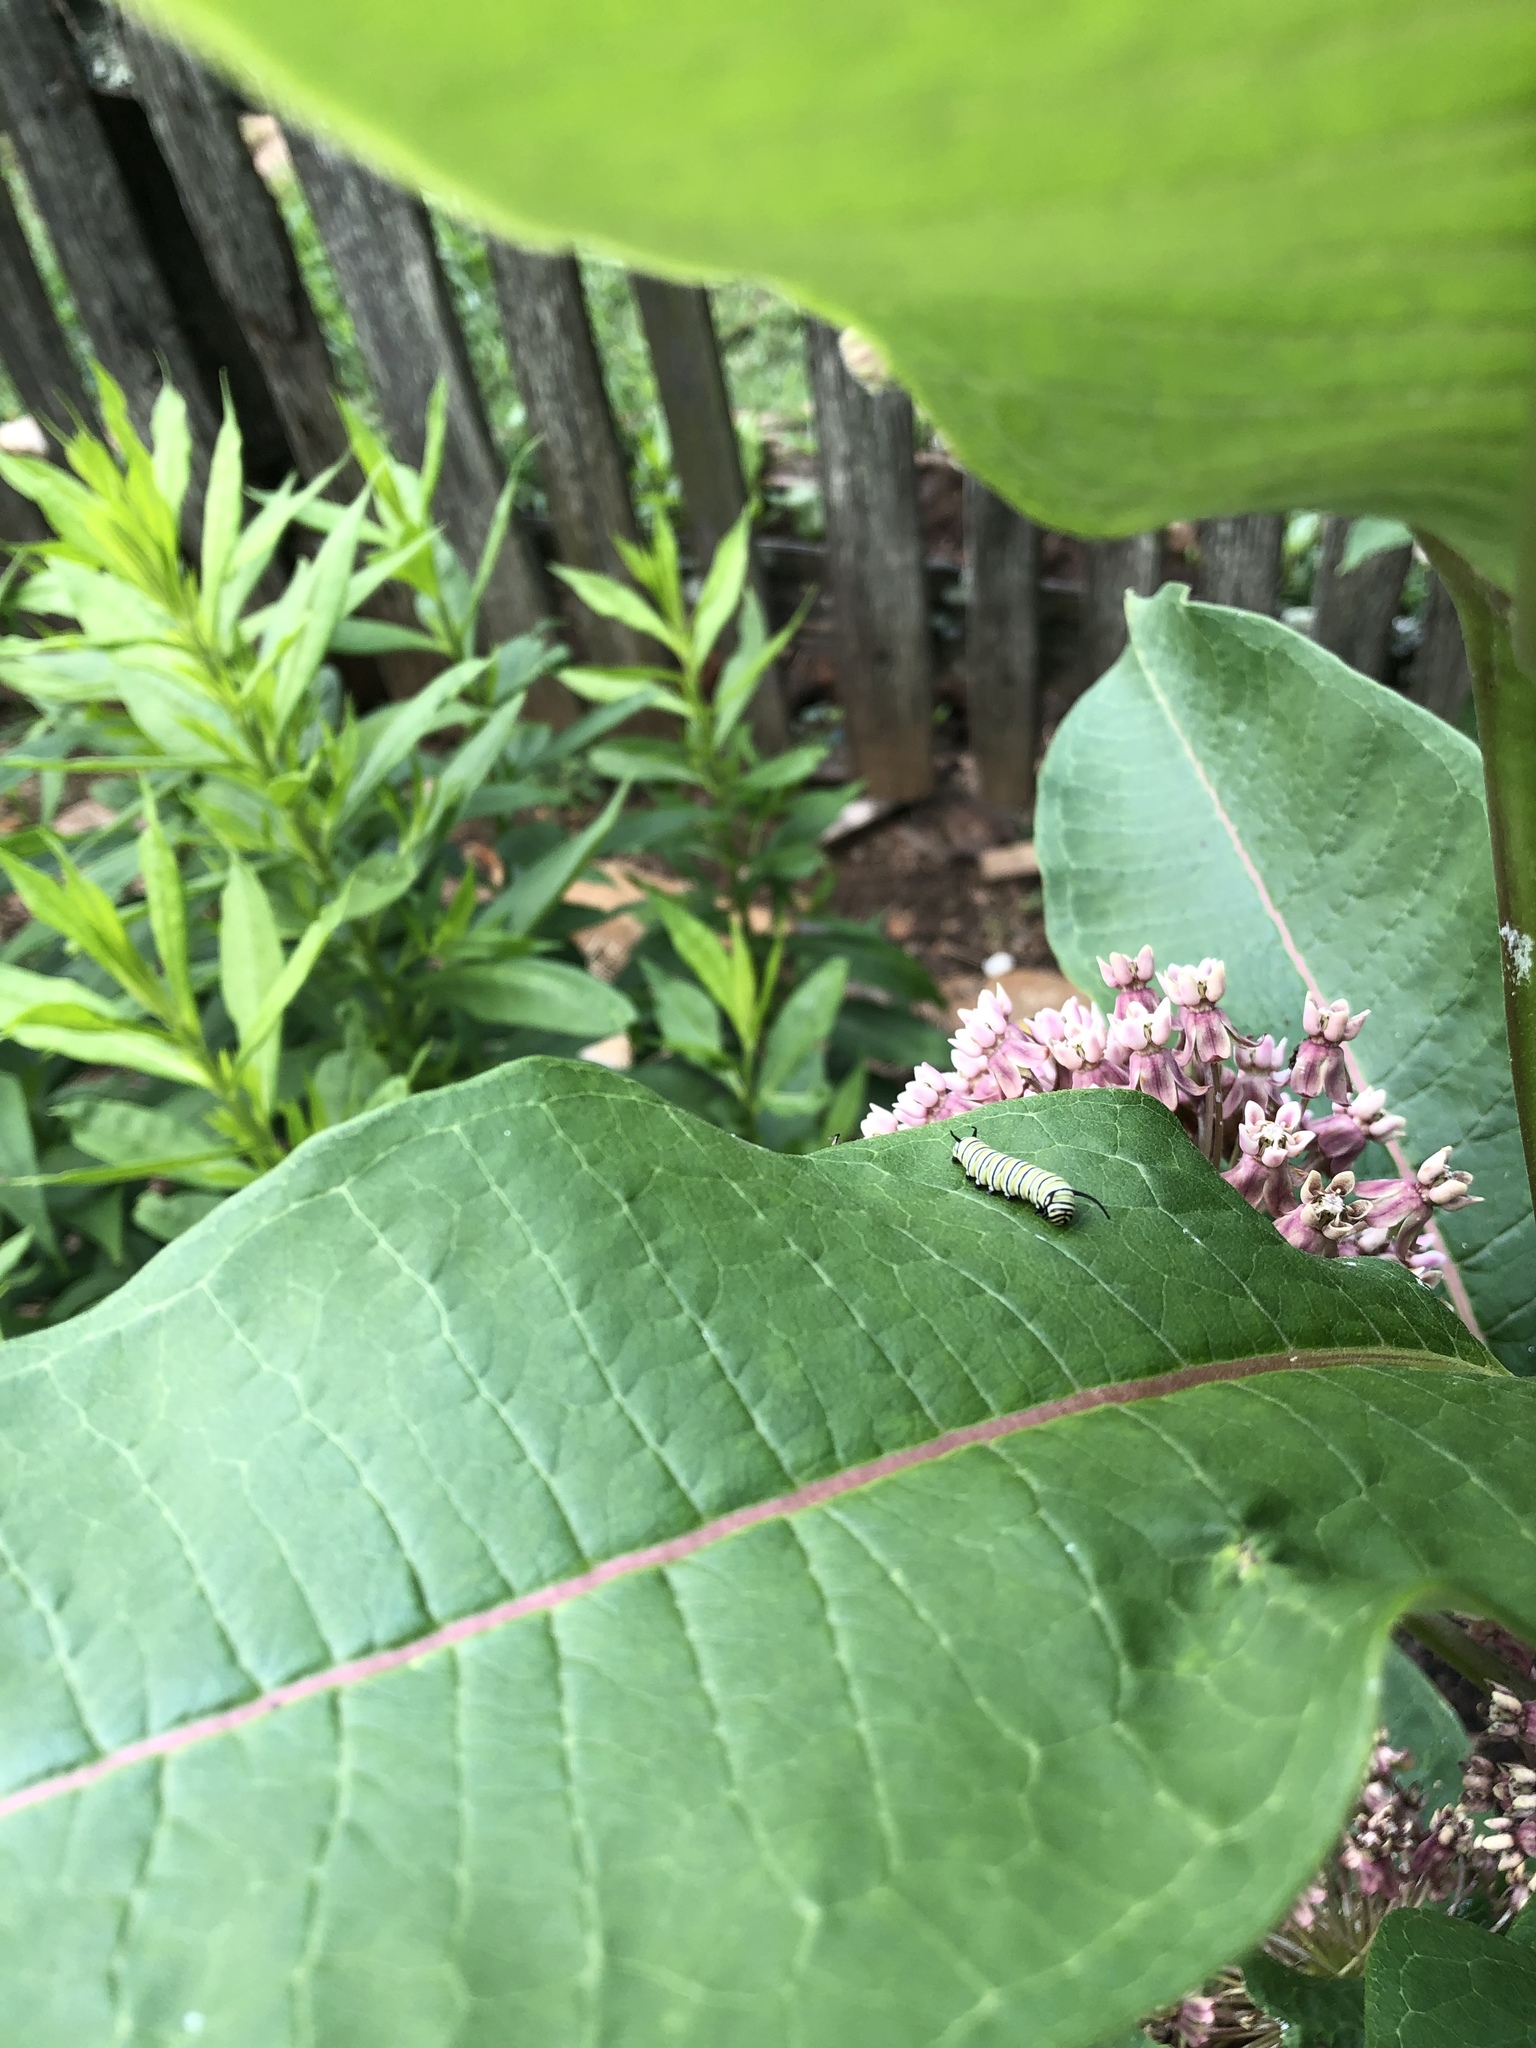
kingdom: Animalia
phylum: Arthropoda
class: Insecta
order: Lepidoptera
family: Nymphalidae
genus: Danaus
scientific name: Danaus plexippus
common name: Monarch
